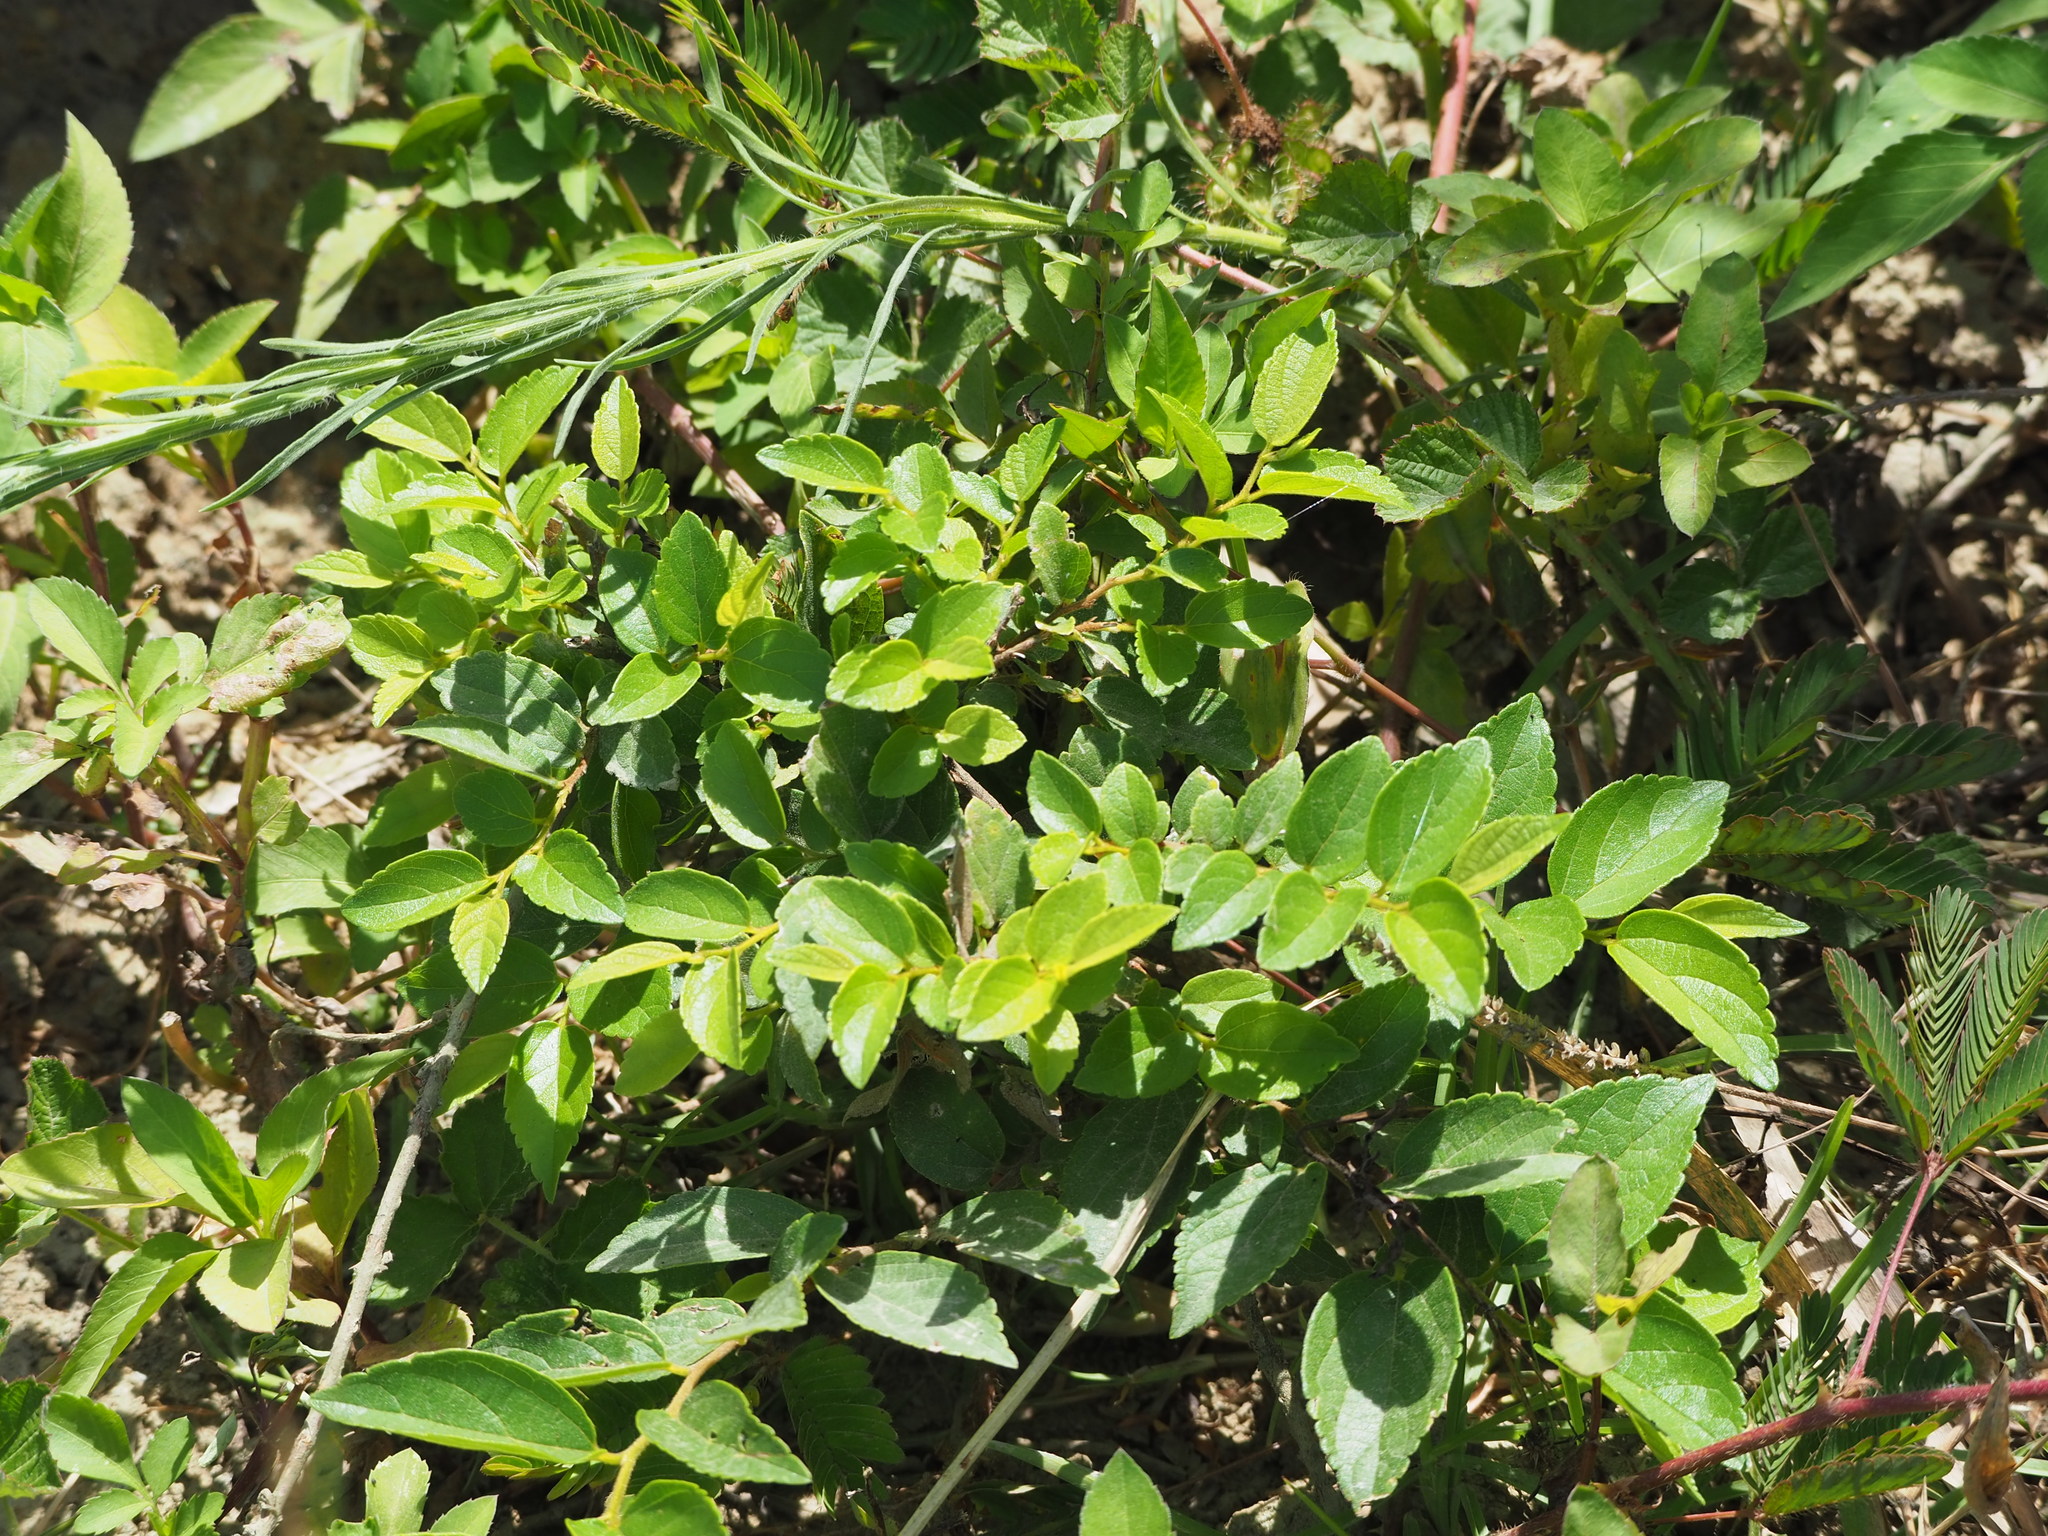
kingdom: Plantae
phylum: Tracheophyta
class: Magnoliopsida
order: Rosales
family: Cannabaceae
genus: Celtis
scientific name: Celtis sinensis
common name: Chinese hackberry
